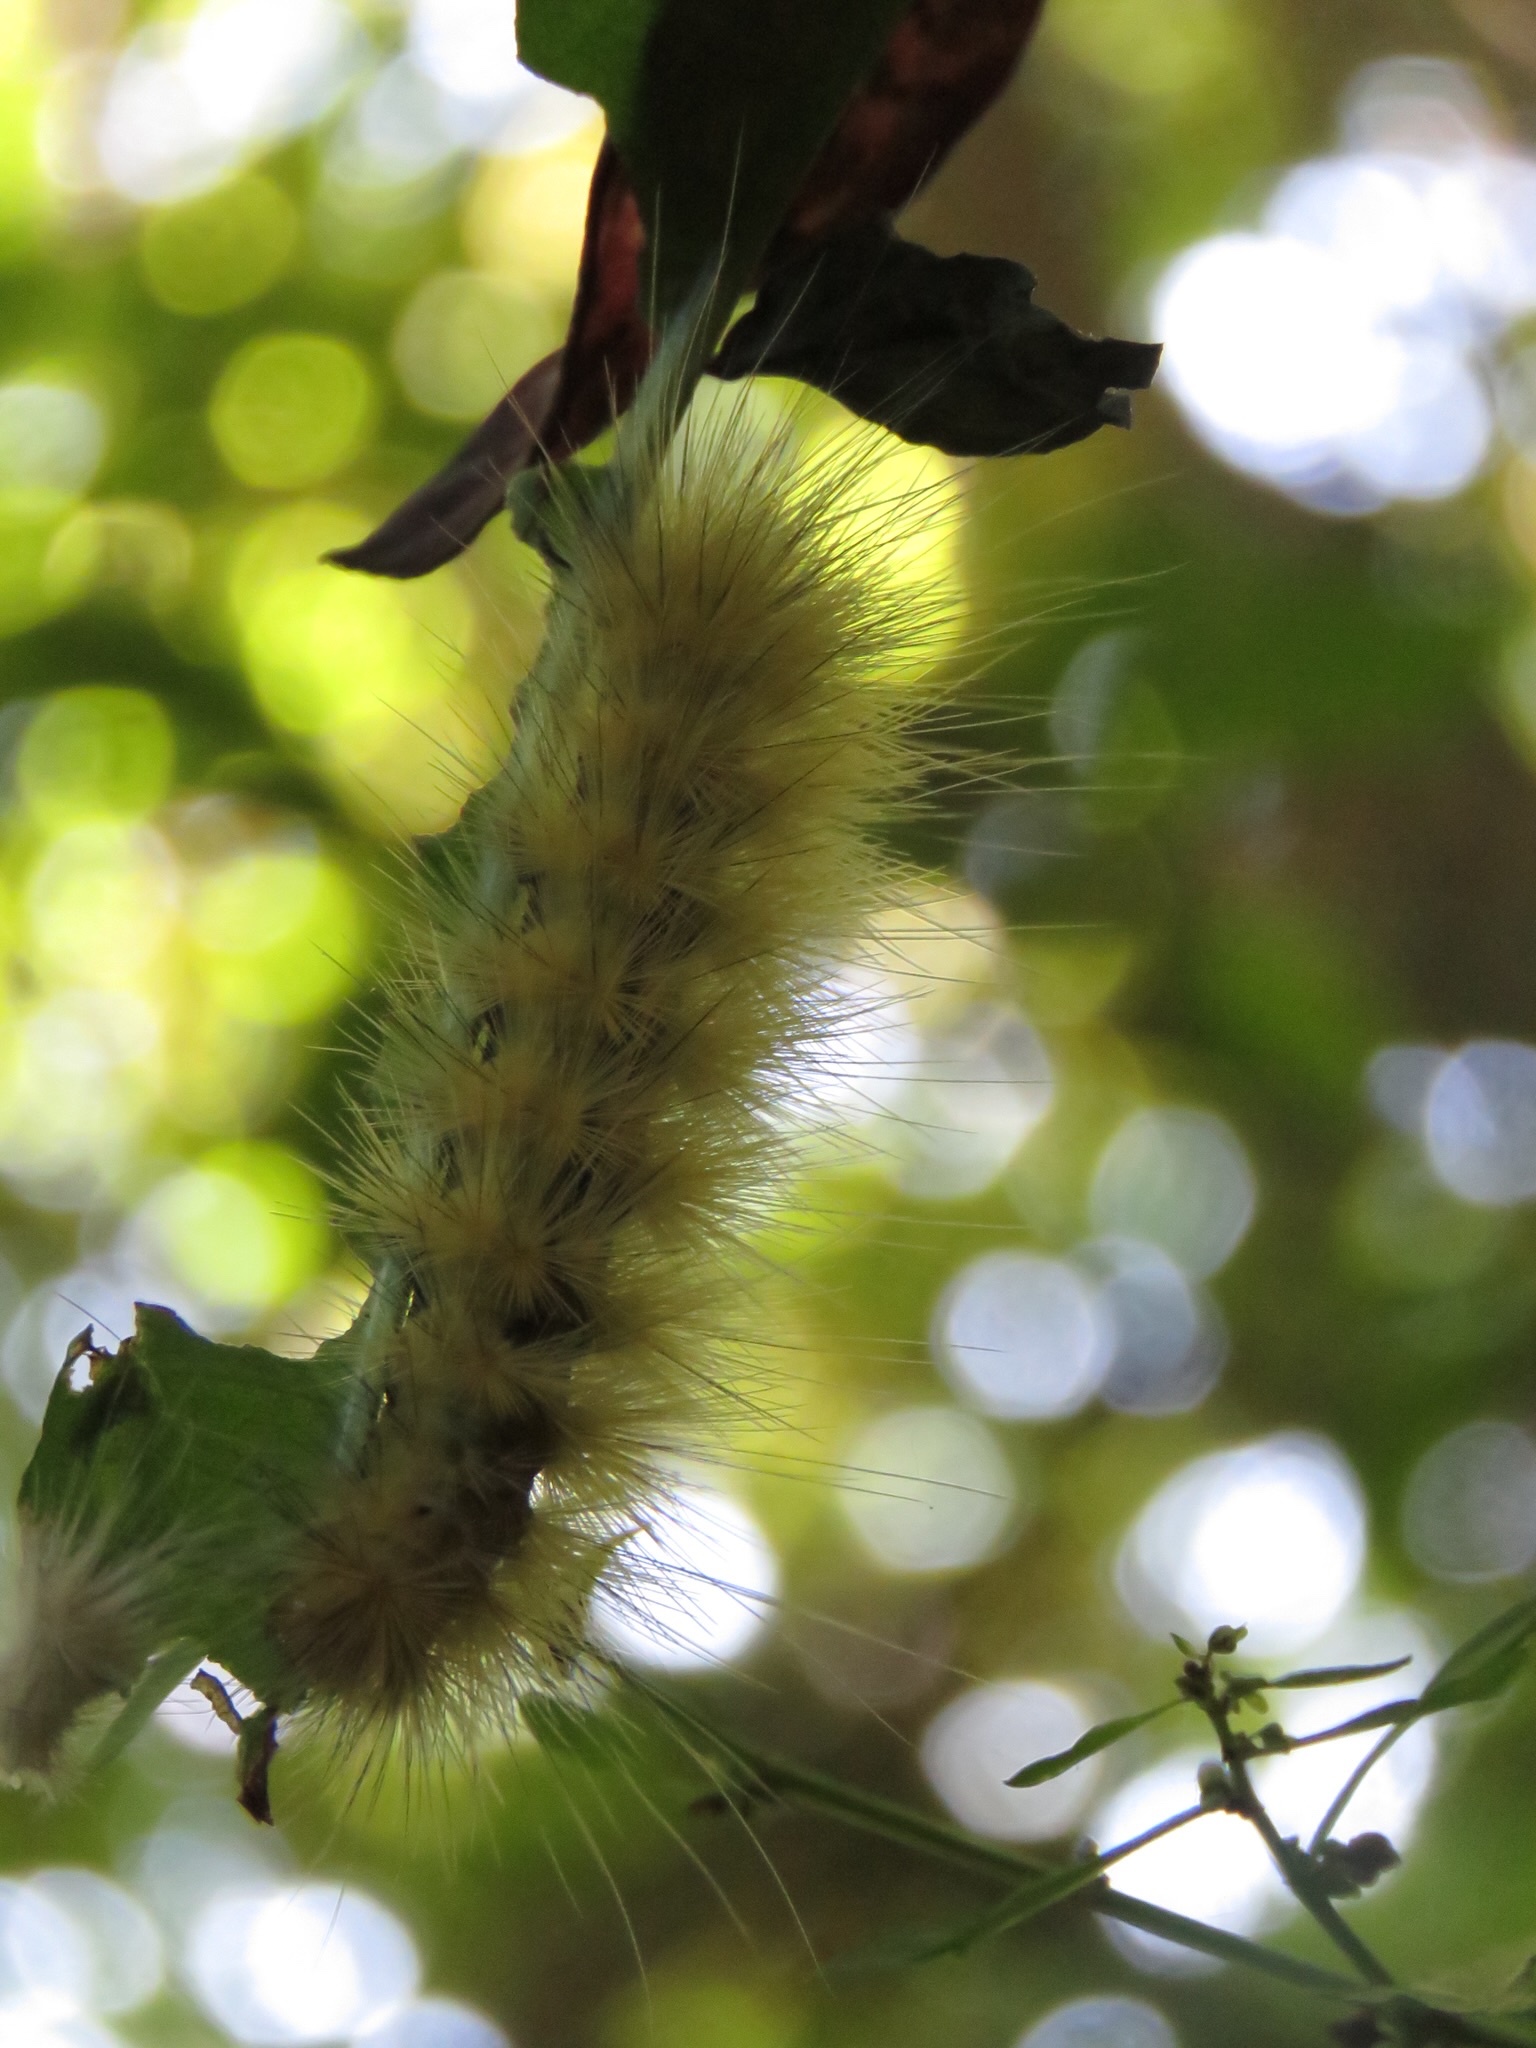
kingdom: Animalia
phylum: Arthropoda
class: Insecta
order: Lepidoptera
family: Erebidae
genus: Spilosoma
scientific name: Spilosoma virginica
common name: Virginia tiger moth
